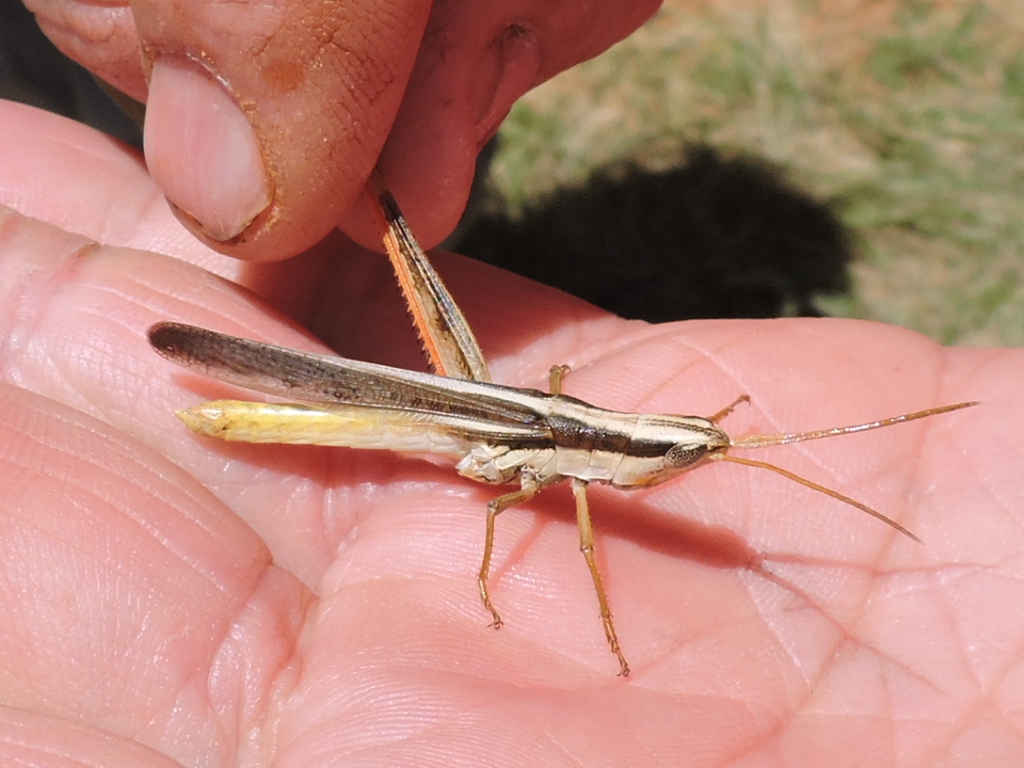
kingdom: Animalia
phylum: Arthropoda
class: Insecta
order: Orthoptera
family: Acrididae
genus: Mermiria
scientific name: Mermiria bivittata
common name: Two-striped mermiria grasshopper
